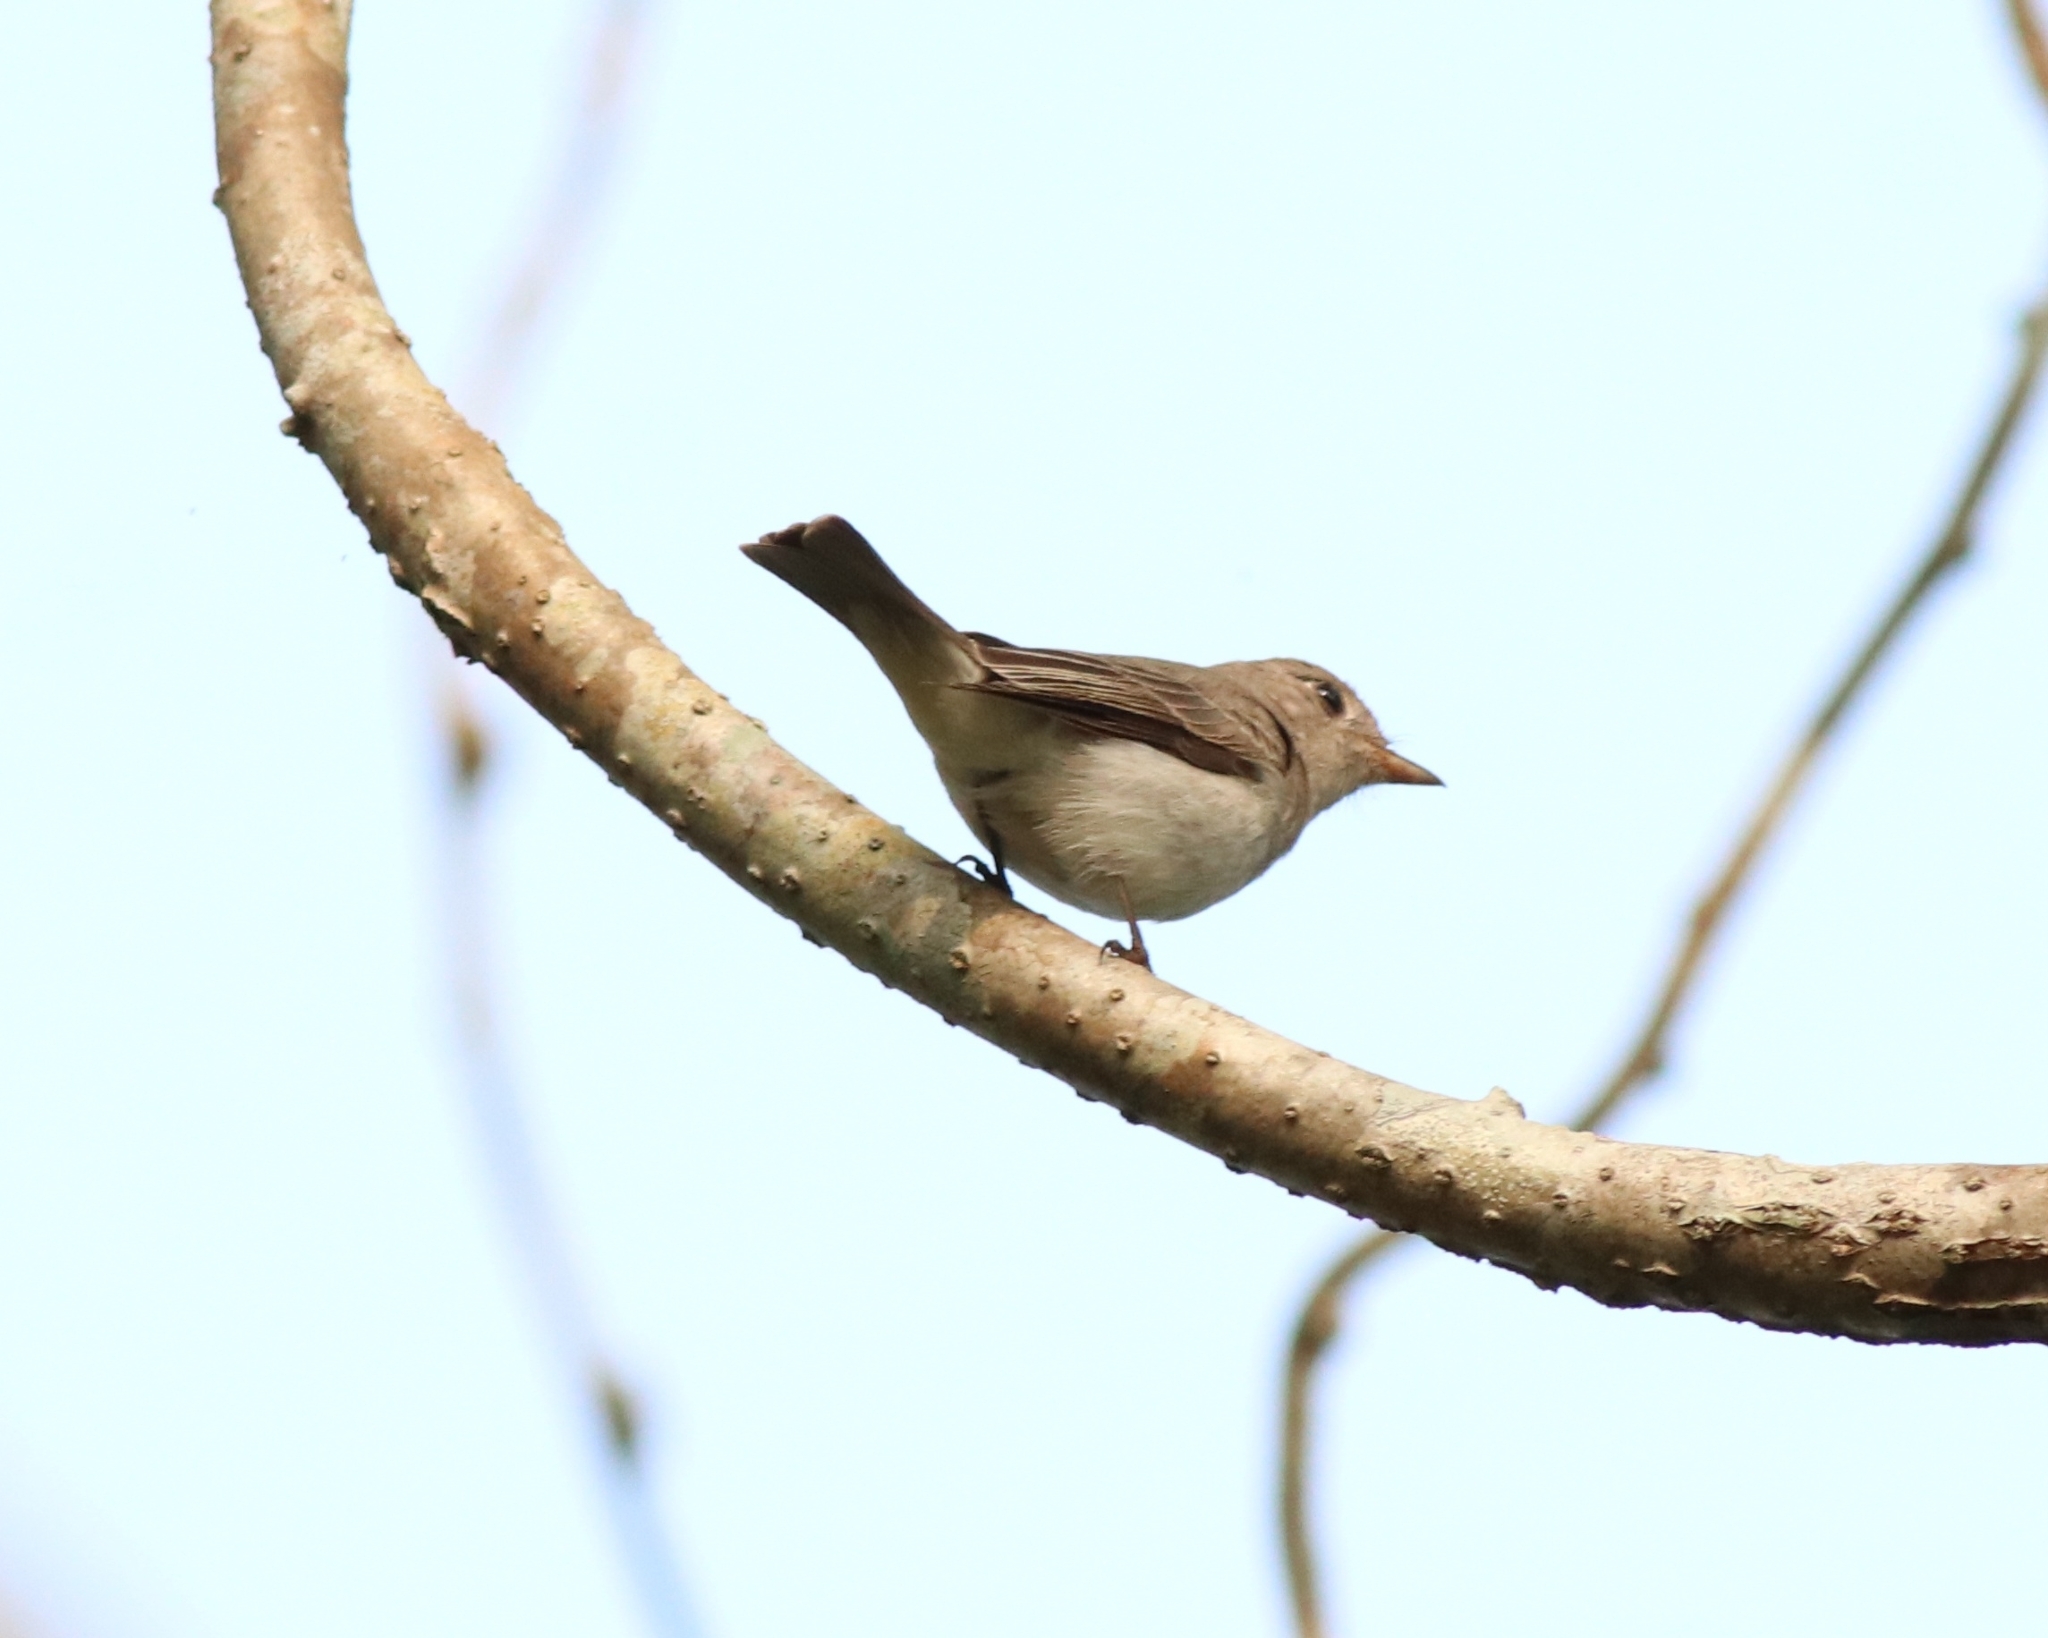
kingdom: Animalia
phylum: Chordata
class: Aves
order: Passeriformes
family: Muscicapidae
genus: Muscicapa
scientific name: Muscicapa latirostris
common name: Asian brown flycatcher
